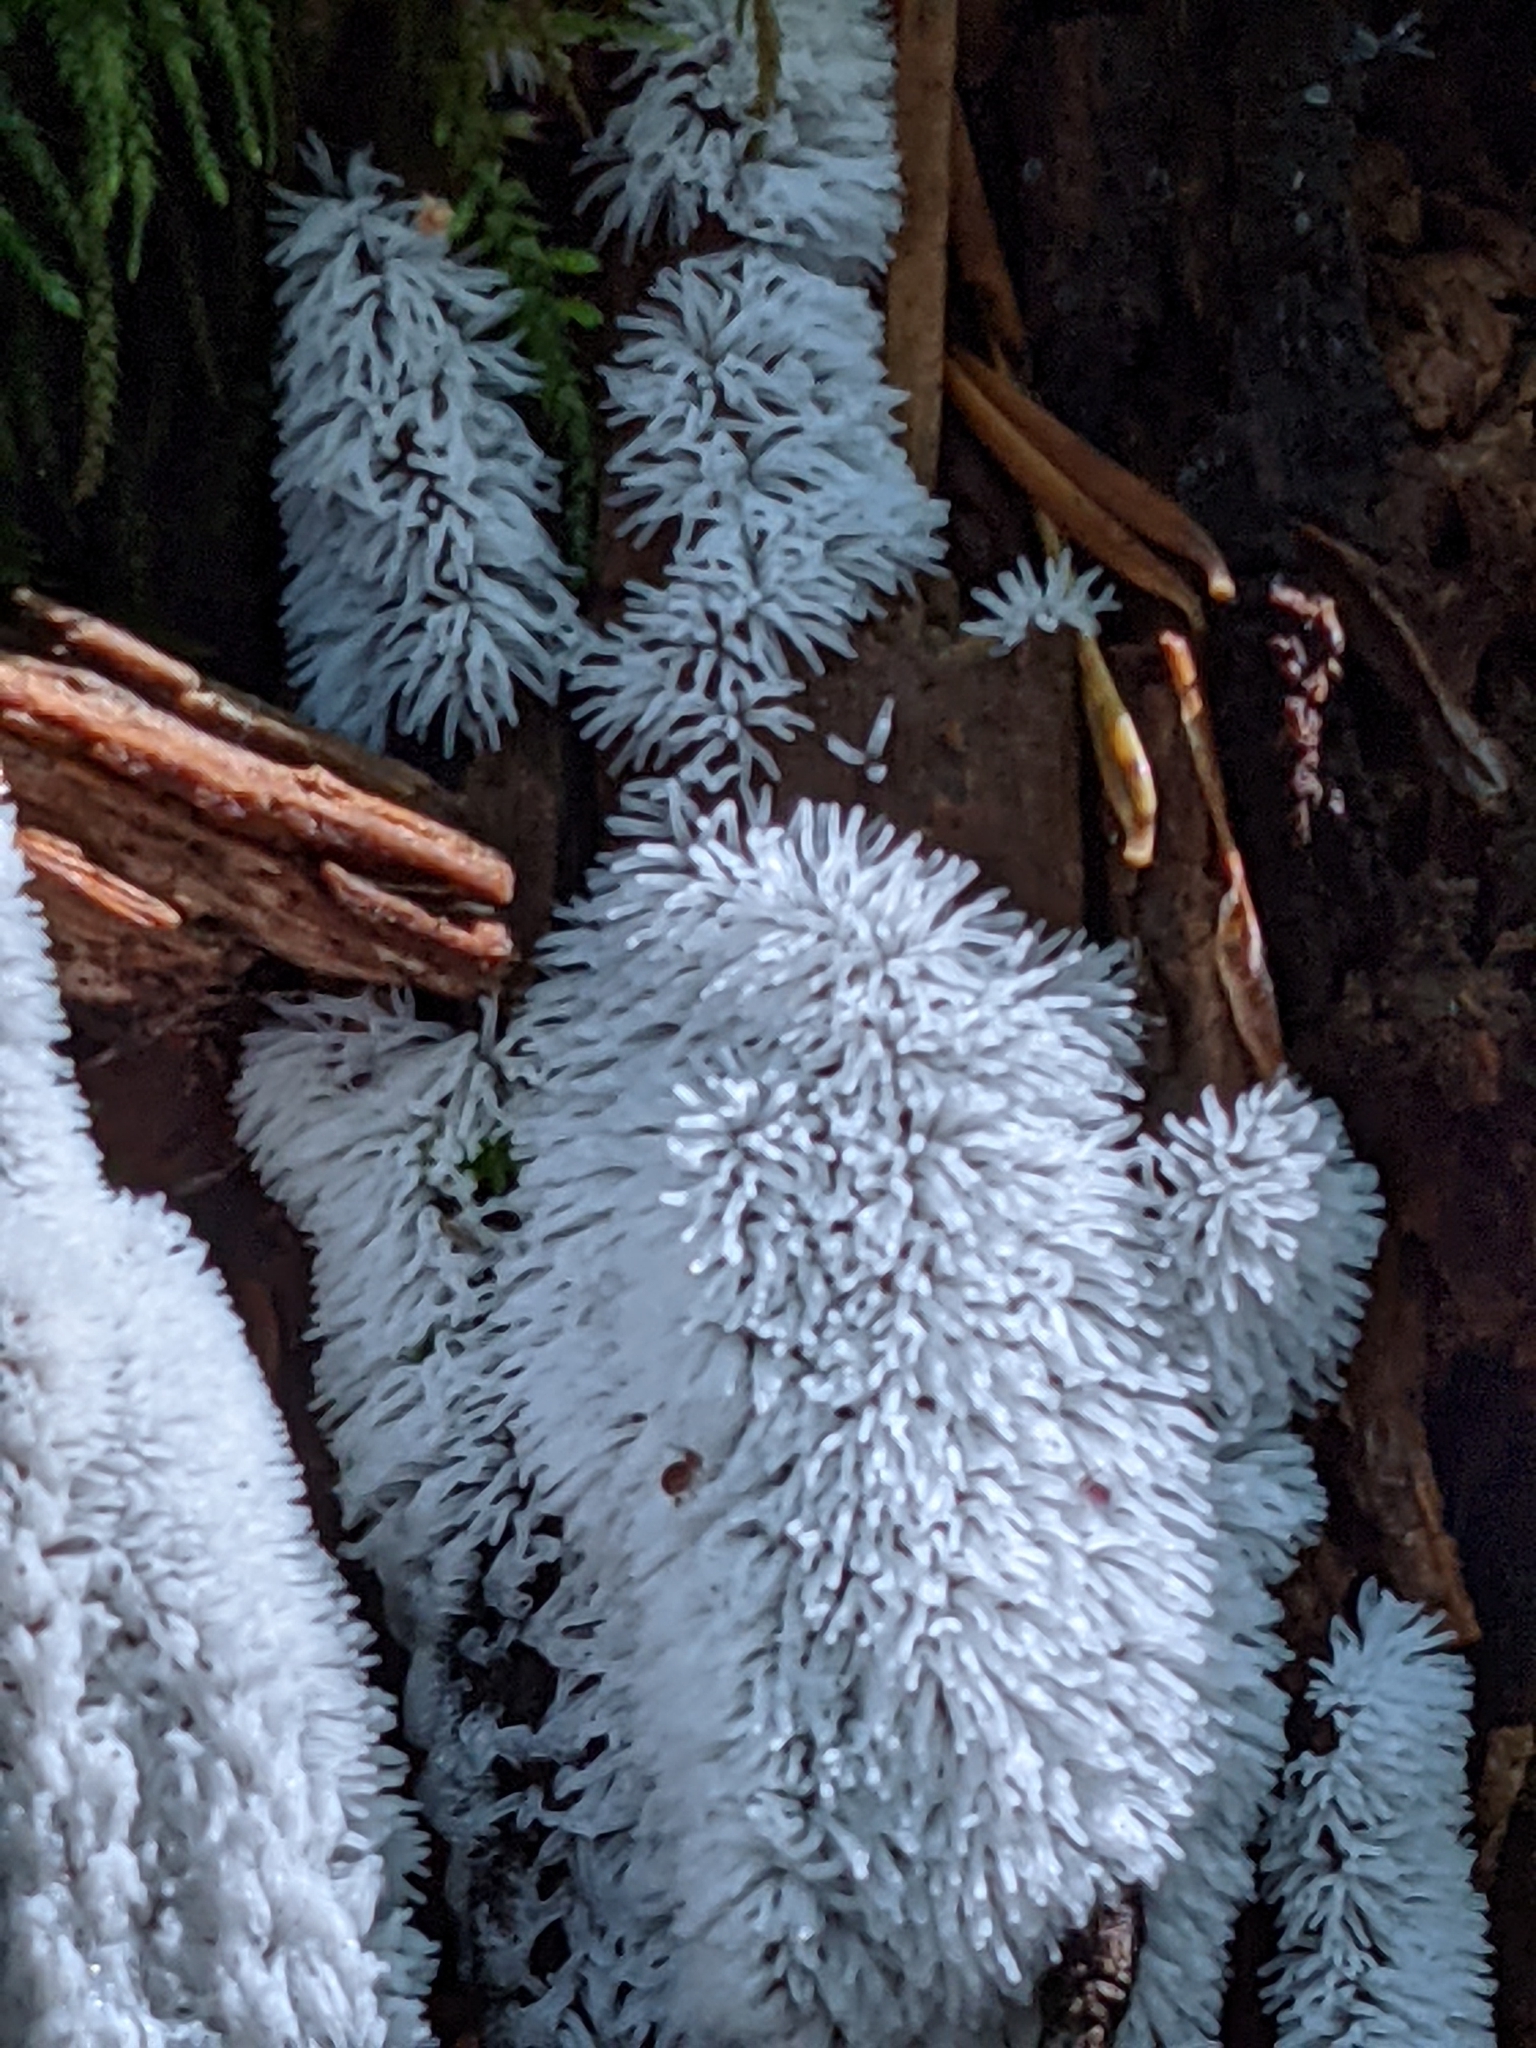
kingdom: Protozoa
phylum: Mycetozoa
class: Protosteliomycetes
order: Ceratiomyxales
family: Ceratiomyxaceae
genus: Ceratiomyxa
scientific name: Ceratiomyxa fruticulosa
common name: Honeycomb coral slime mold
